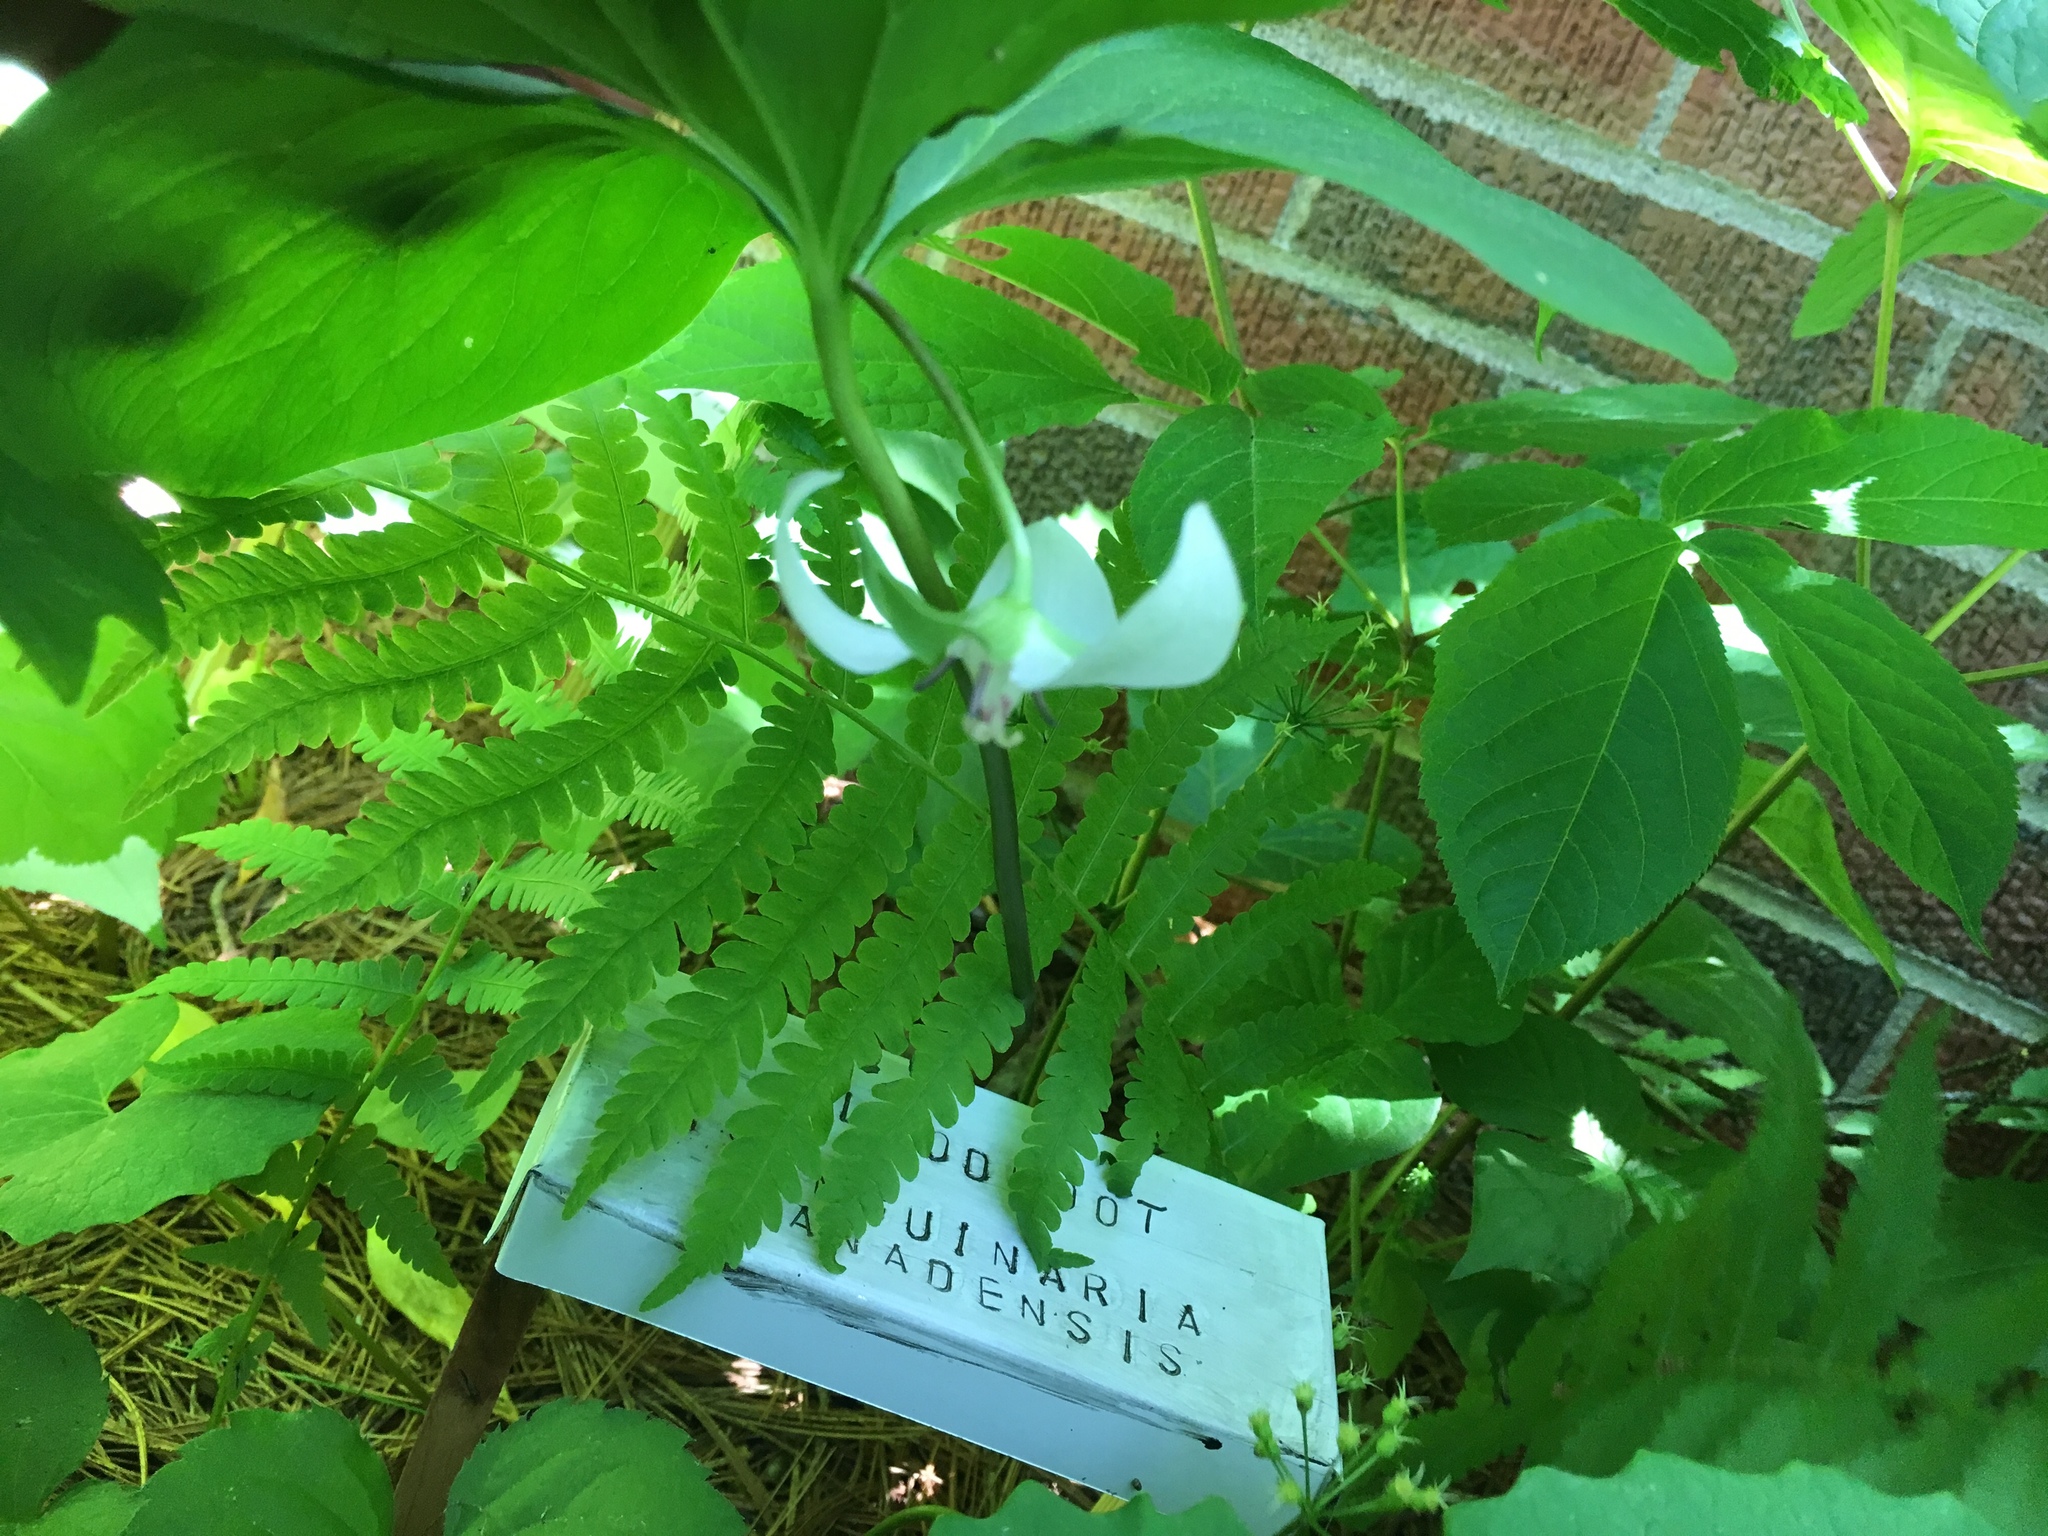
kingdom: Plantae
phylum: Tracheophyta
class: Liliopsida
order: Liliales
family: Melanthiaceae
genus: Trillium
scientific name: Trillium cernuum
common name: Nodding trillium
